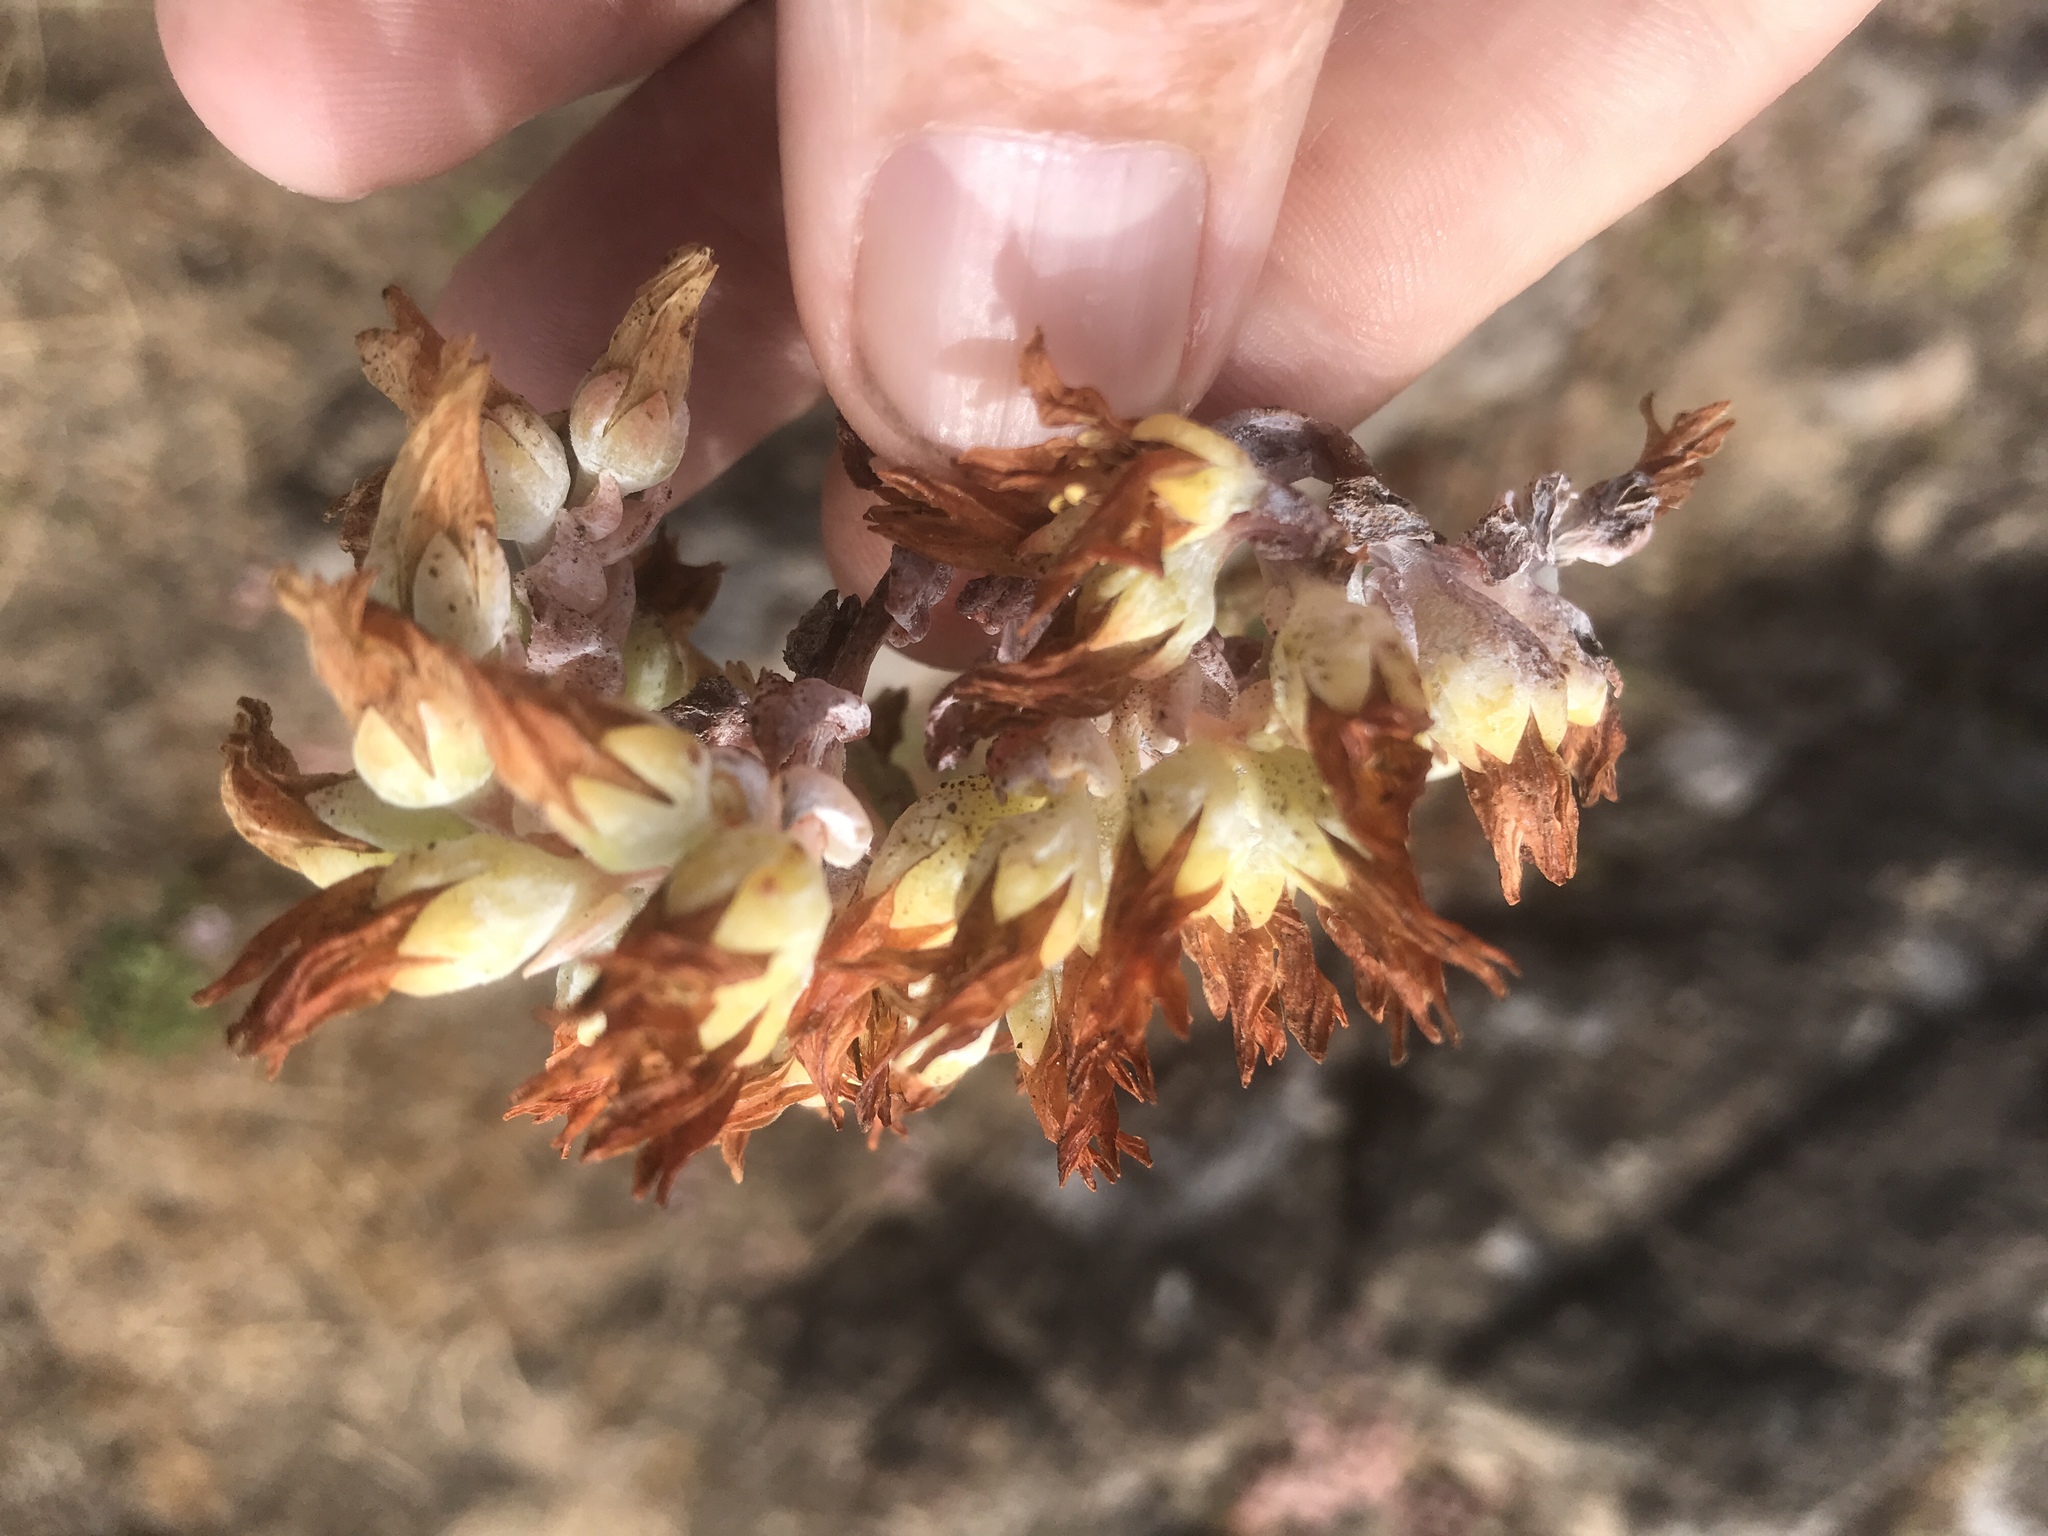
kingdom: Plantae
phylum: Tracheophyta
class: Magnoliopsida
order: Saxifragales
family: Crassulaceae
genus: Dudleya
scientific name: Dudleya farinosa
